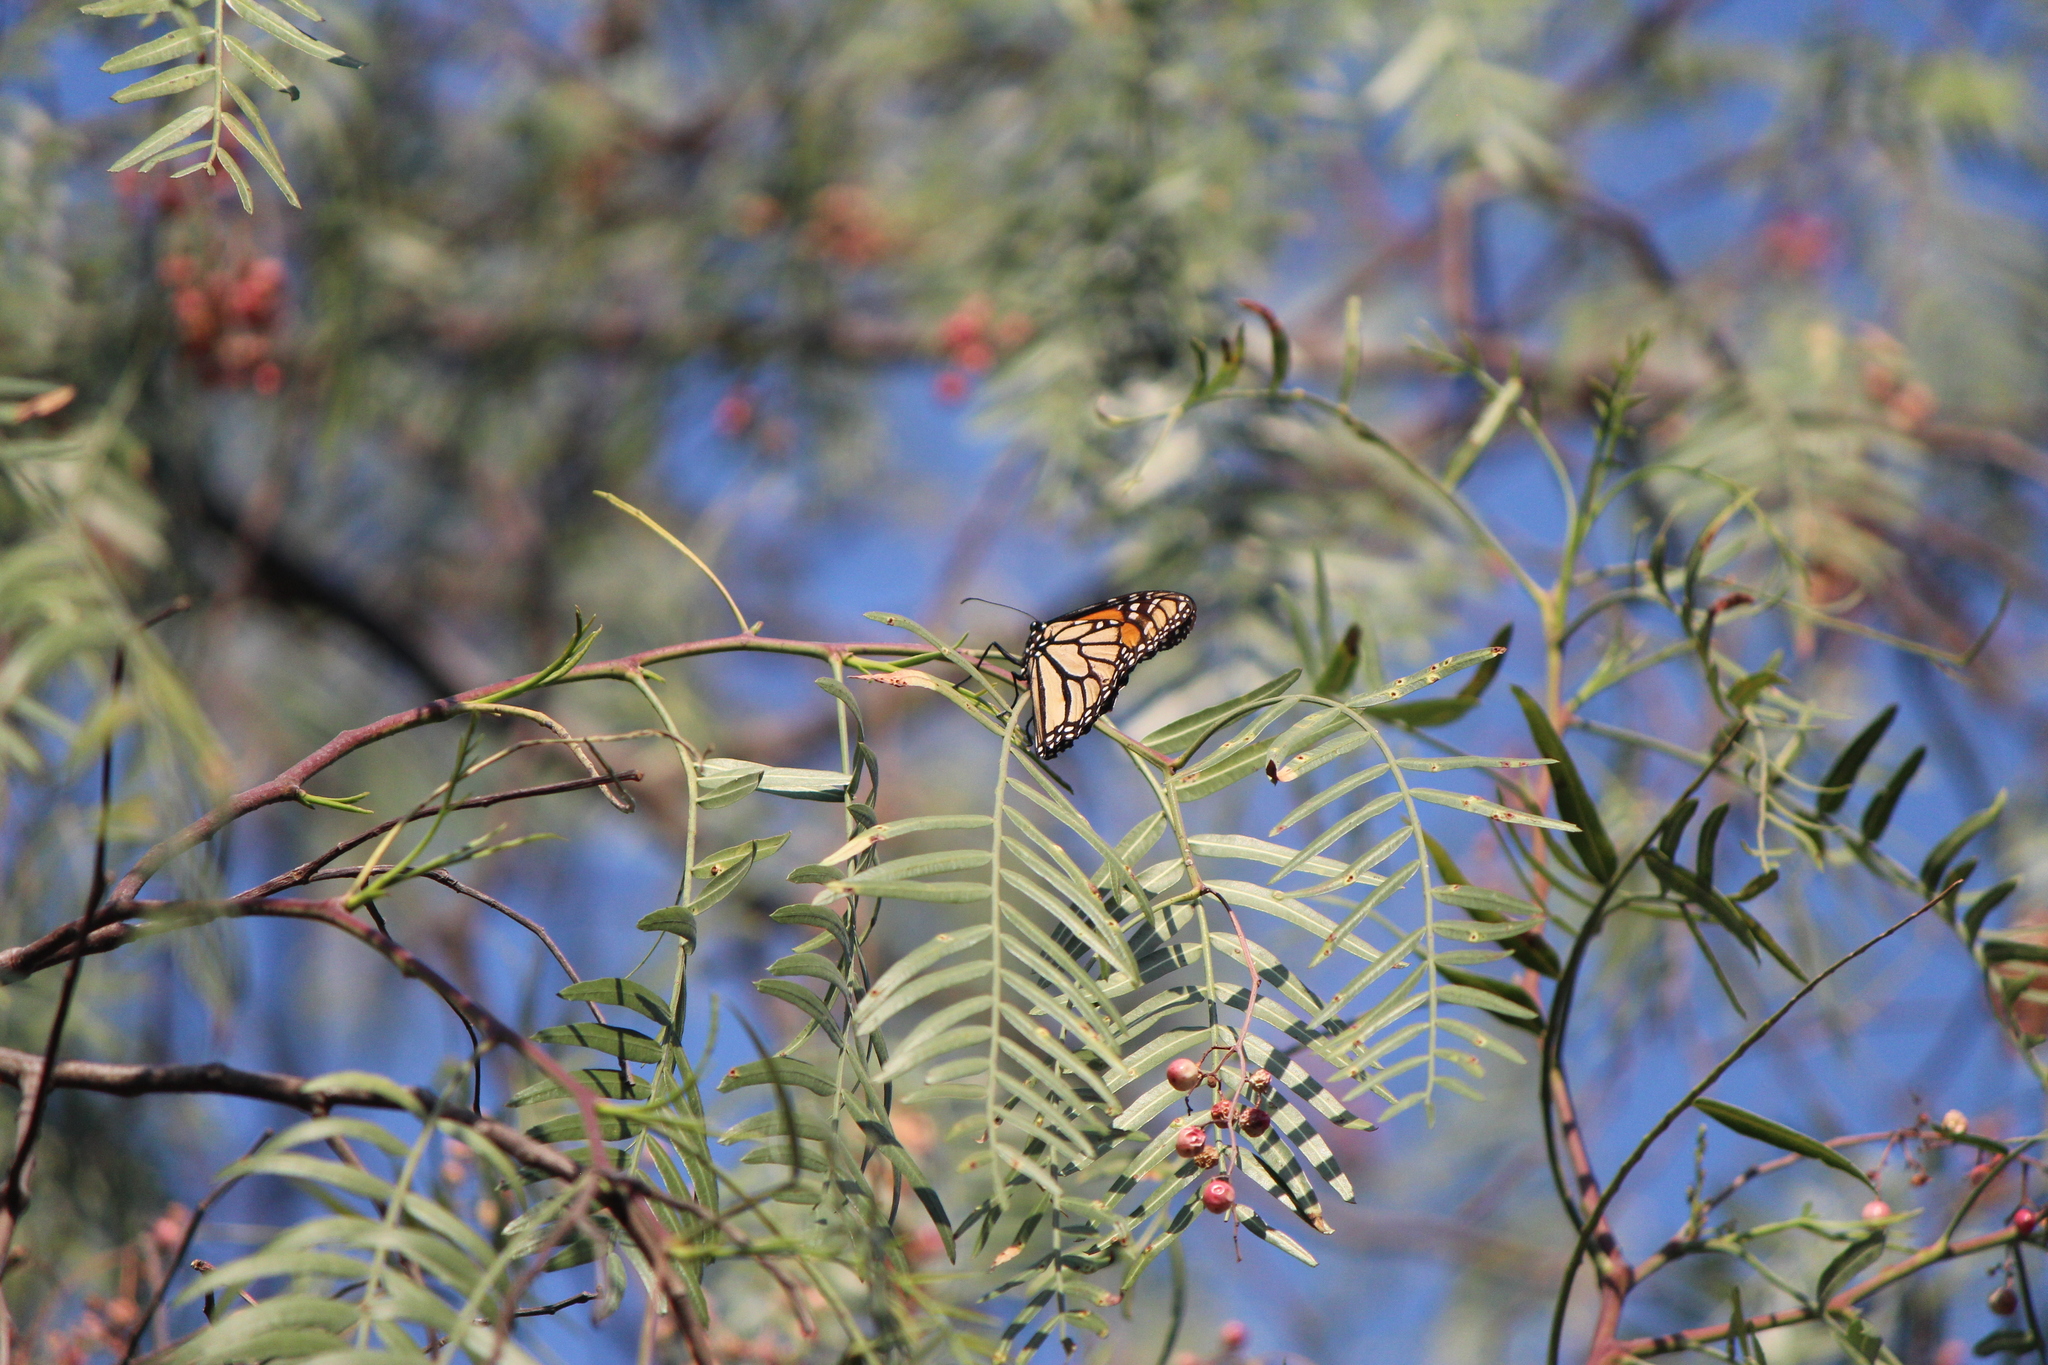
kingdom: Animalia
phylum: Arthropoda
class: Insecta
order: Lepidoptera
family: Nymphalidae
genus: Danaus
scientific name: Danaus plexippus
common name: Monarch
